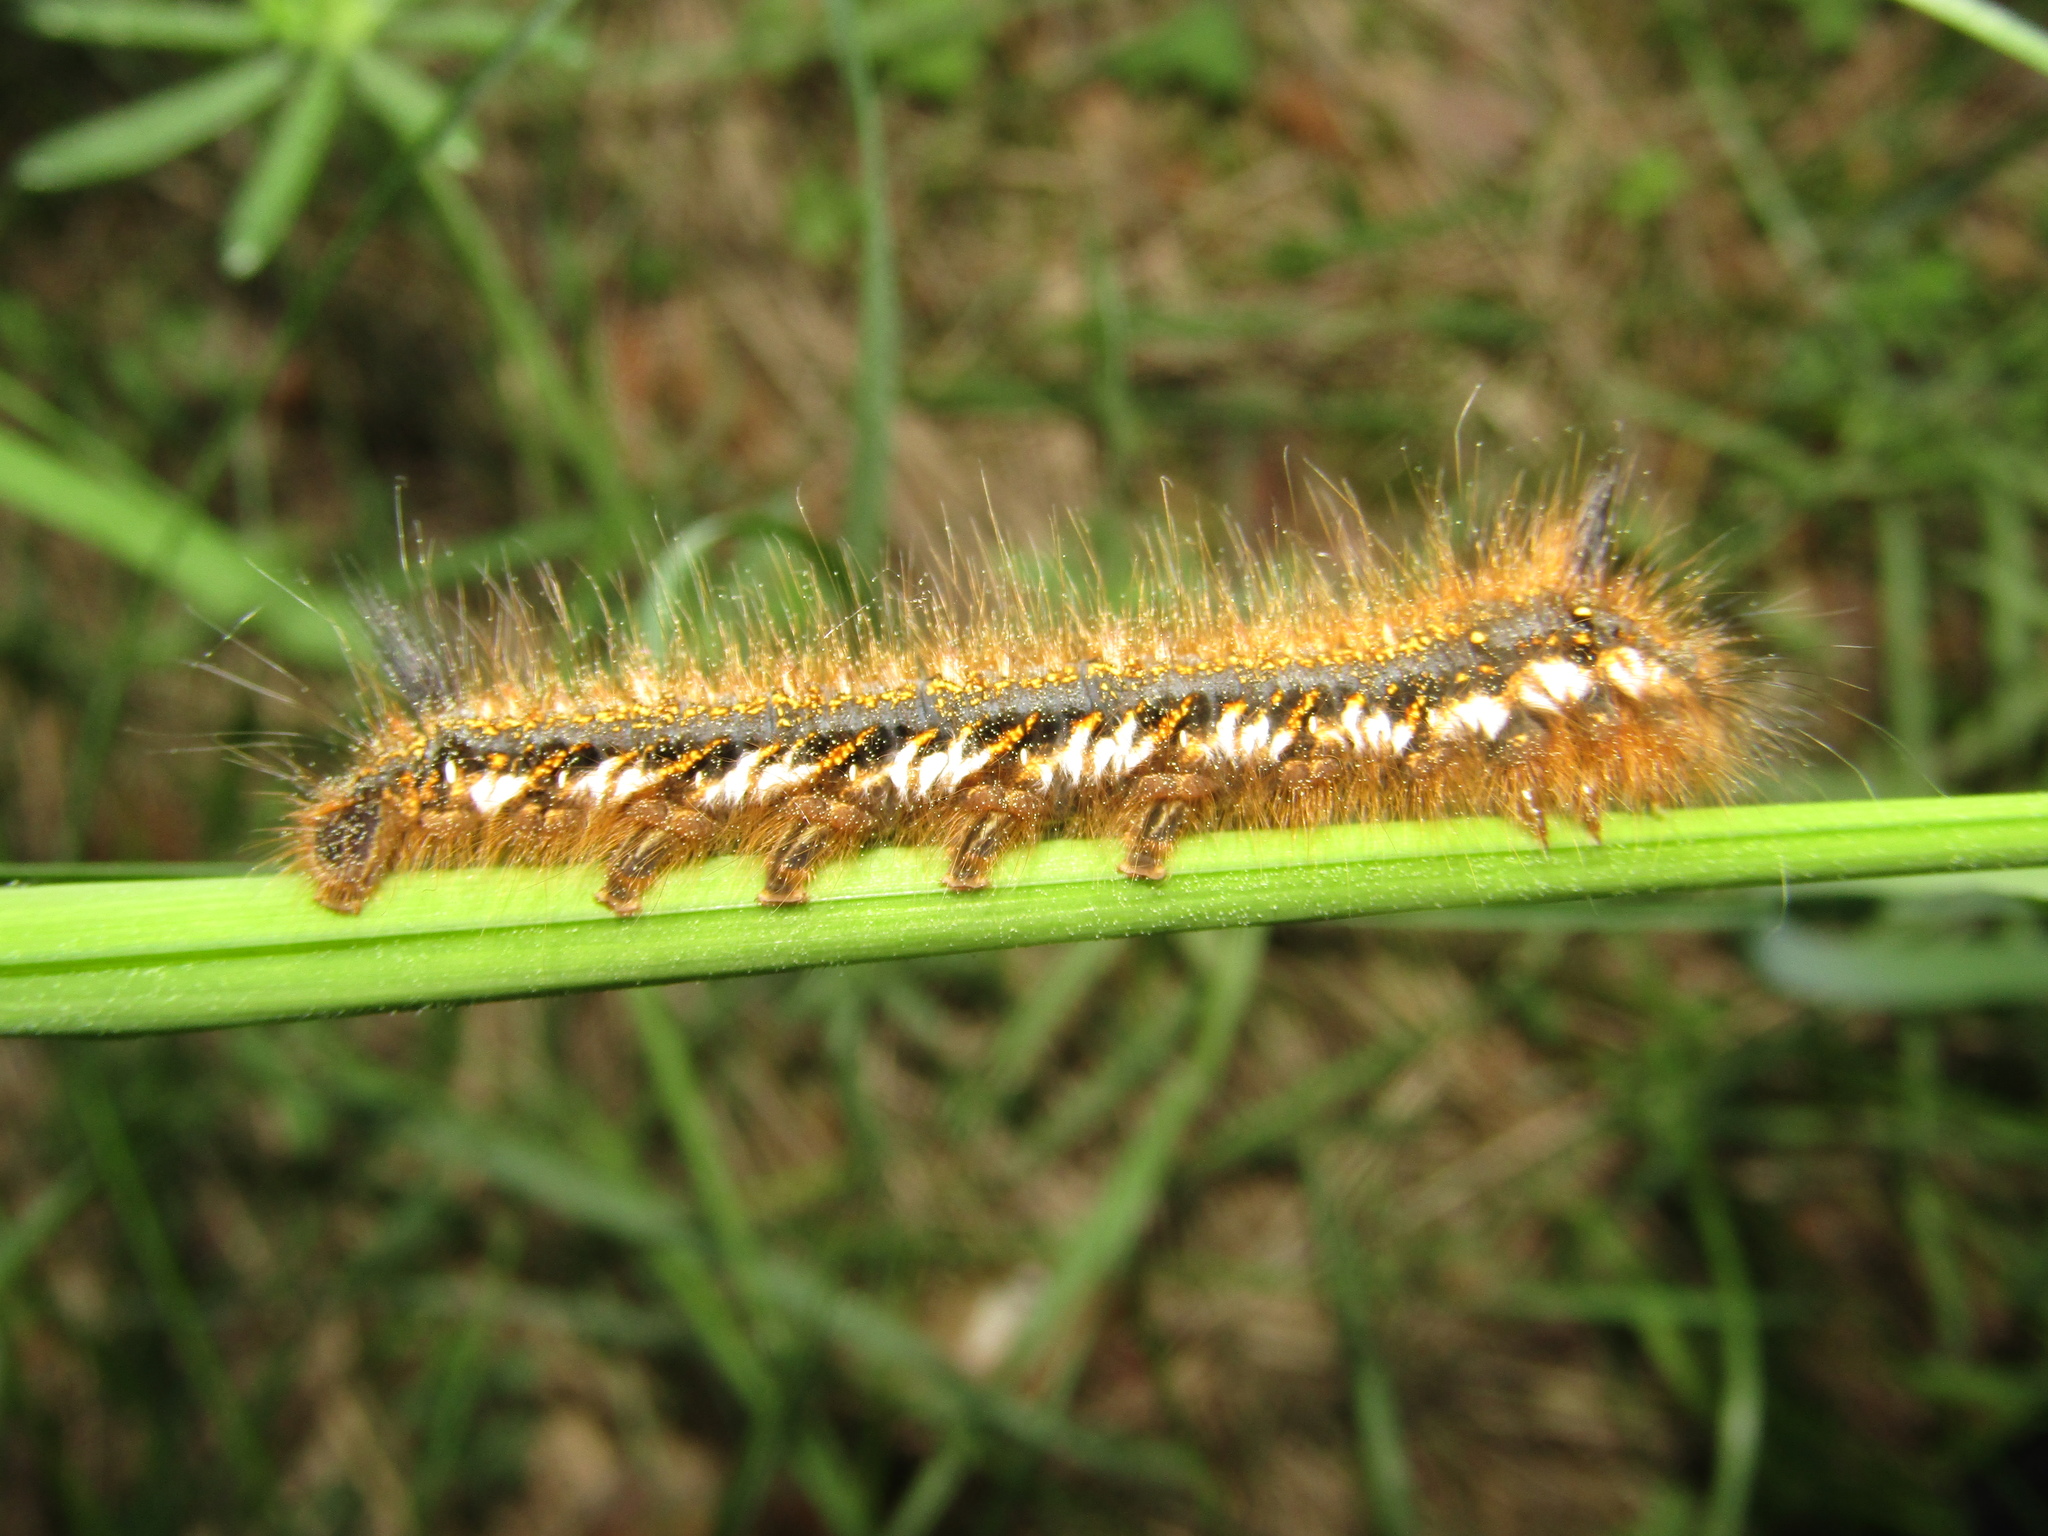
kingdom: Animalia
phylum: Arthropoda
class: Insecta
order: Lepidoptera
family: Lasiocampidae
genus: Euthrix
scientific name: Euthrix potatoria
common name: Drinker
